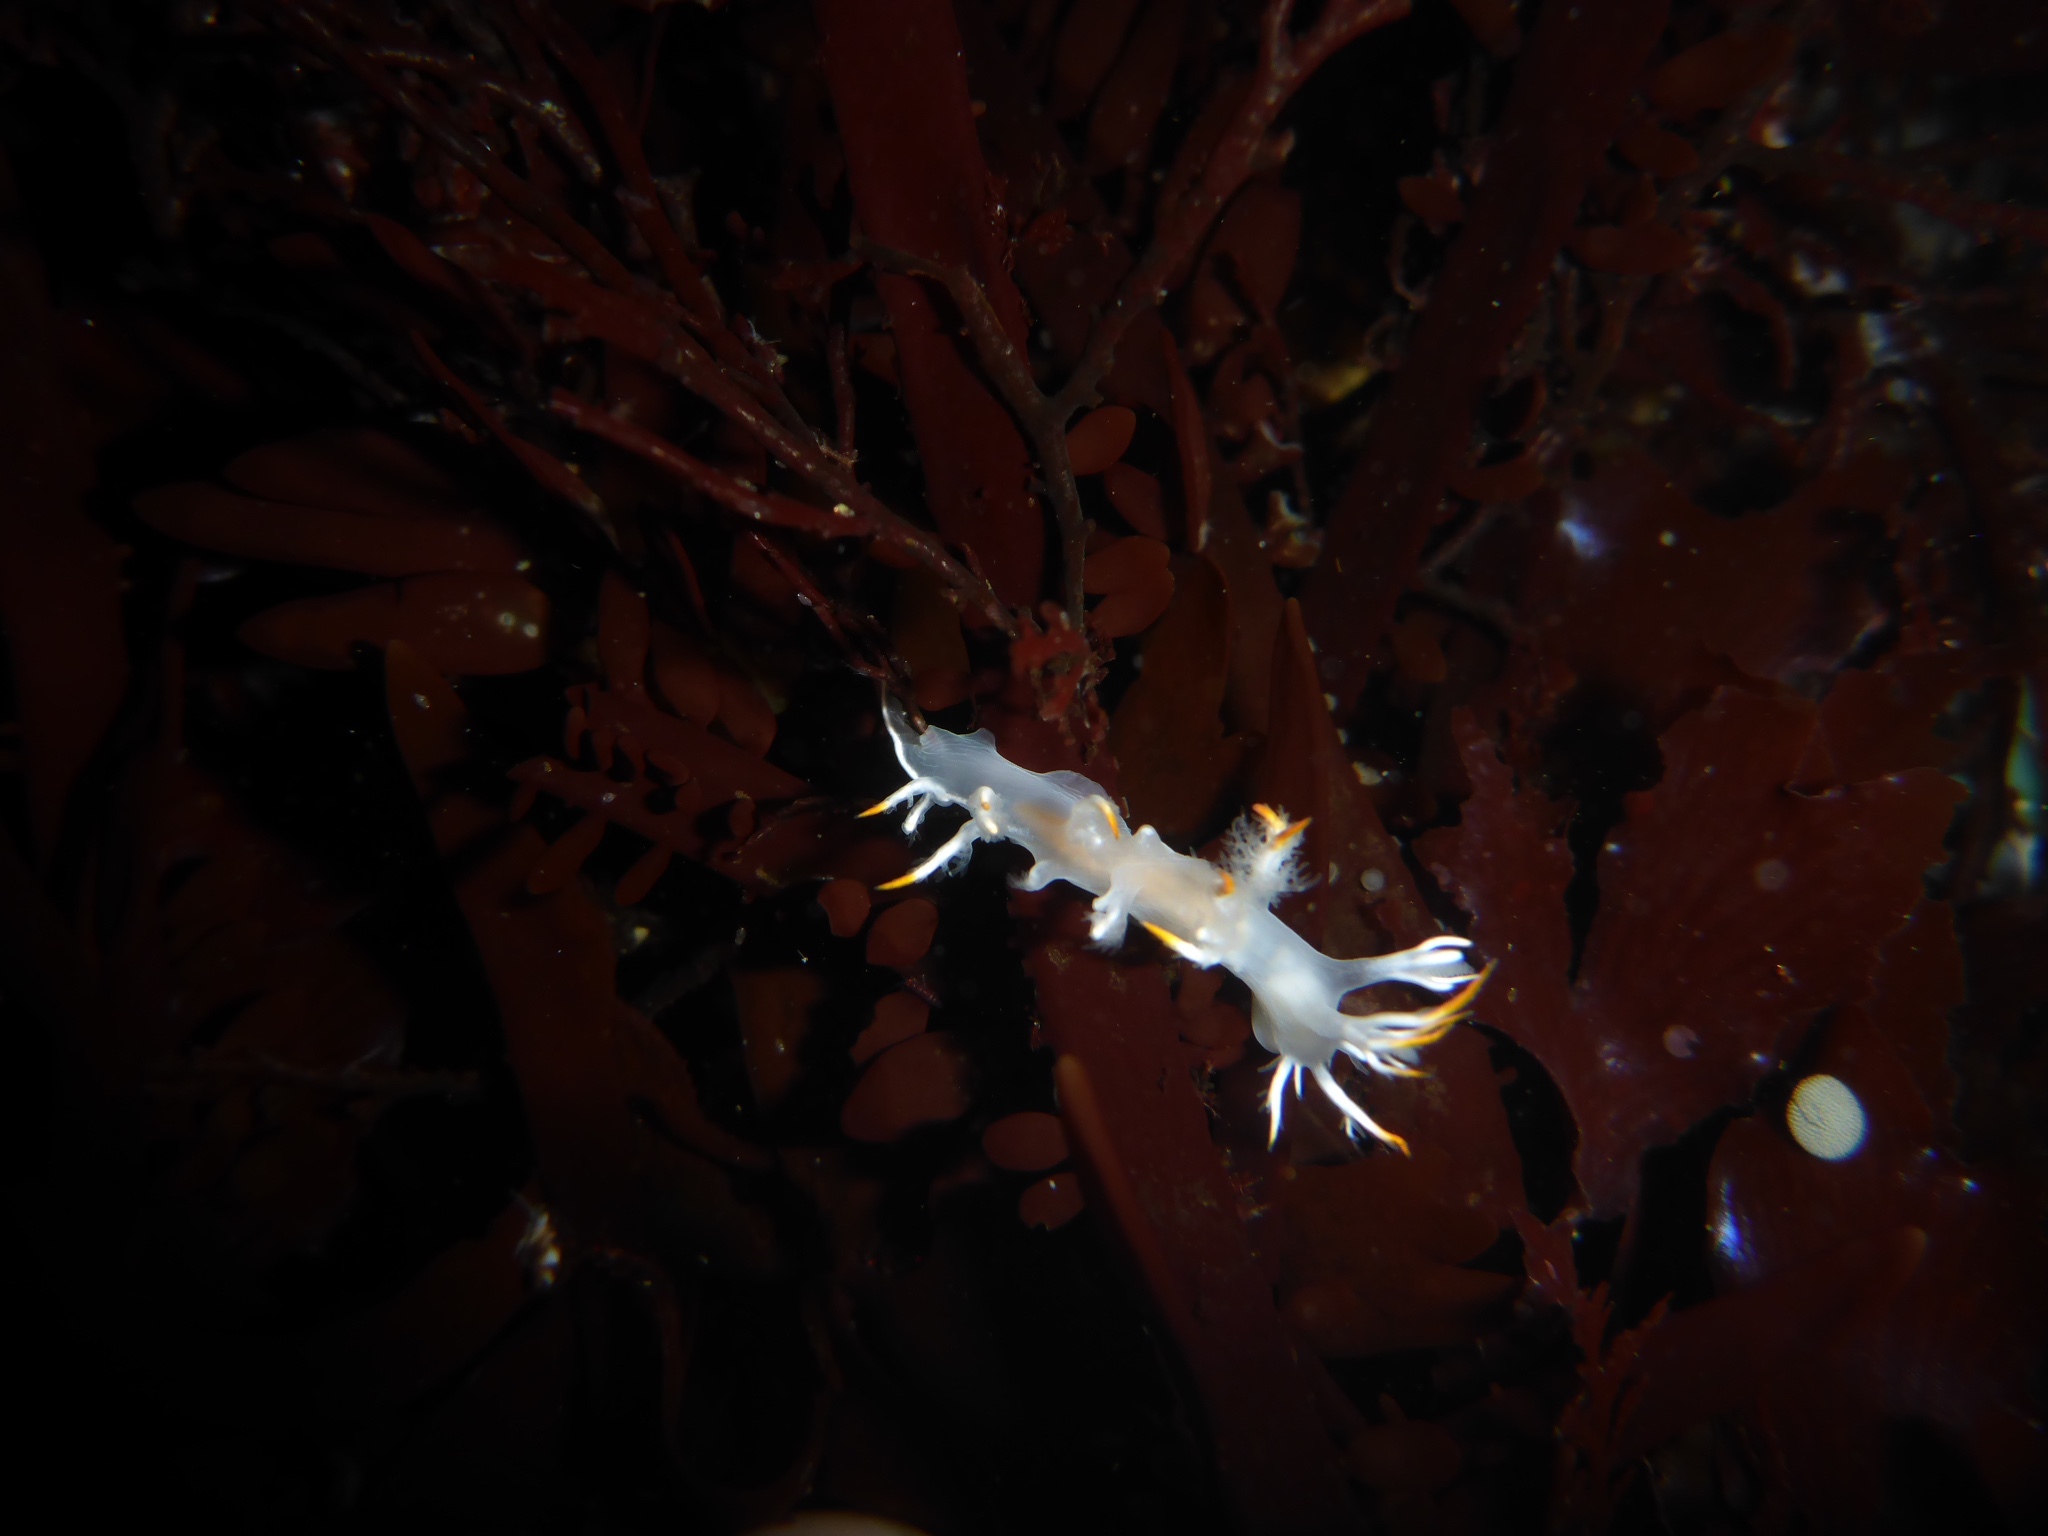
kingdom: Animalia
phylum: Mollusca
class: Gastropoda
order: Nudibranchia
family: Dendronotidae
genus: Dendronotus
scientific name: Dendronotus albus
